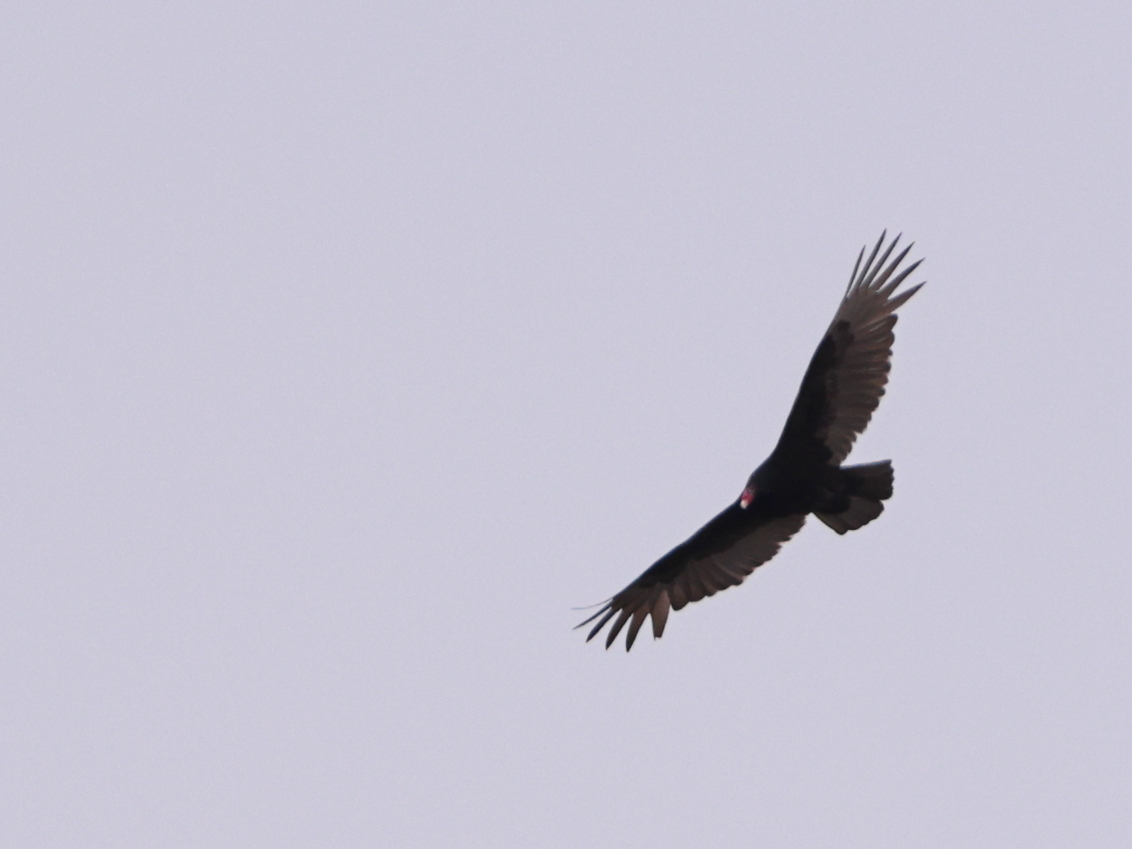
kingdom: Animalia
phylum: Chordata
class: Aves
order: Accipitriformes
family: Cathartidae
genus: Cathartes
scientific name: Cathartes aura
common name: Turkey vulture
